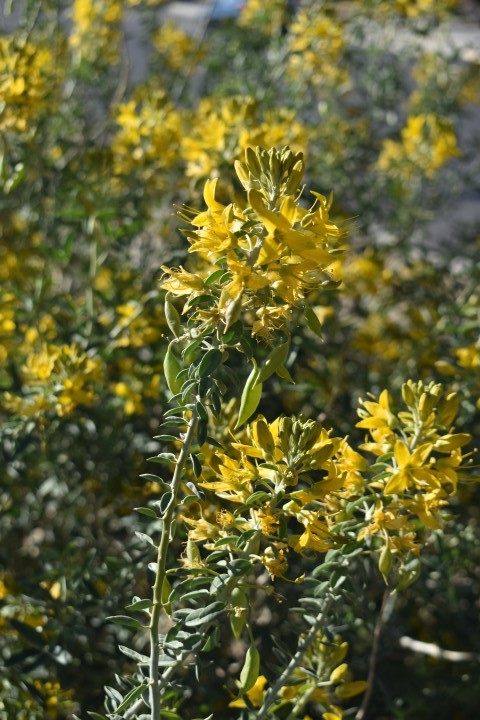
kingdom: Plantae
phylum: Tracheophyta
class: Magnoliopsida
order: Brassicales
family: Cleomaceae
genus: Cleomella
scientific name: Cleomella arborea
